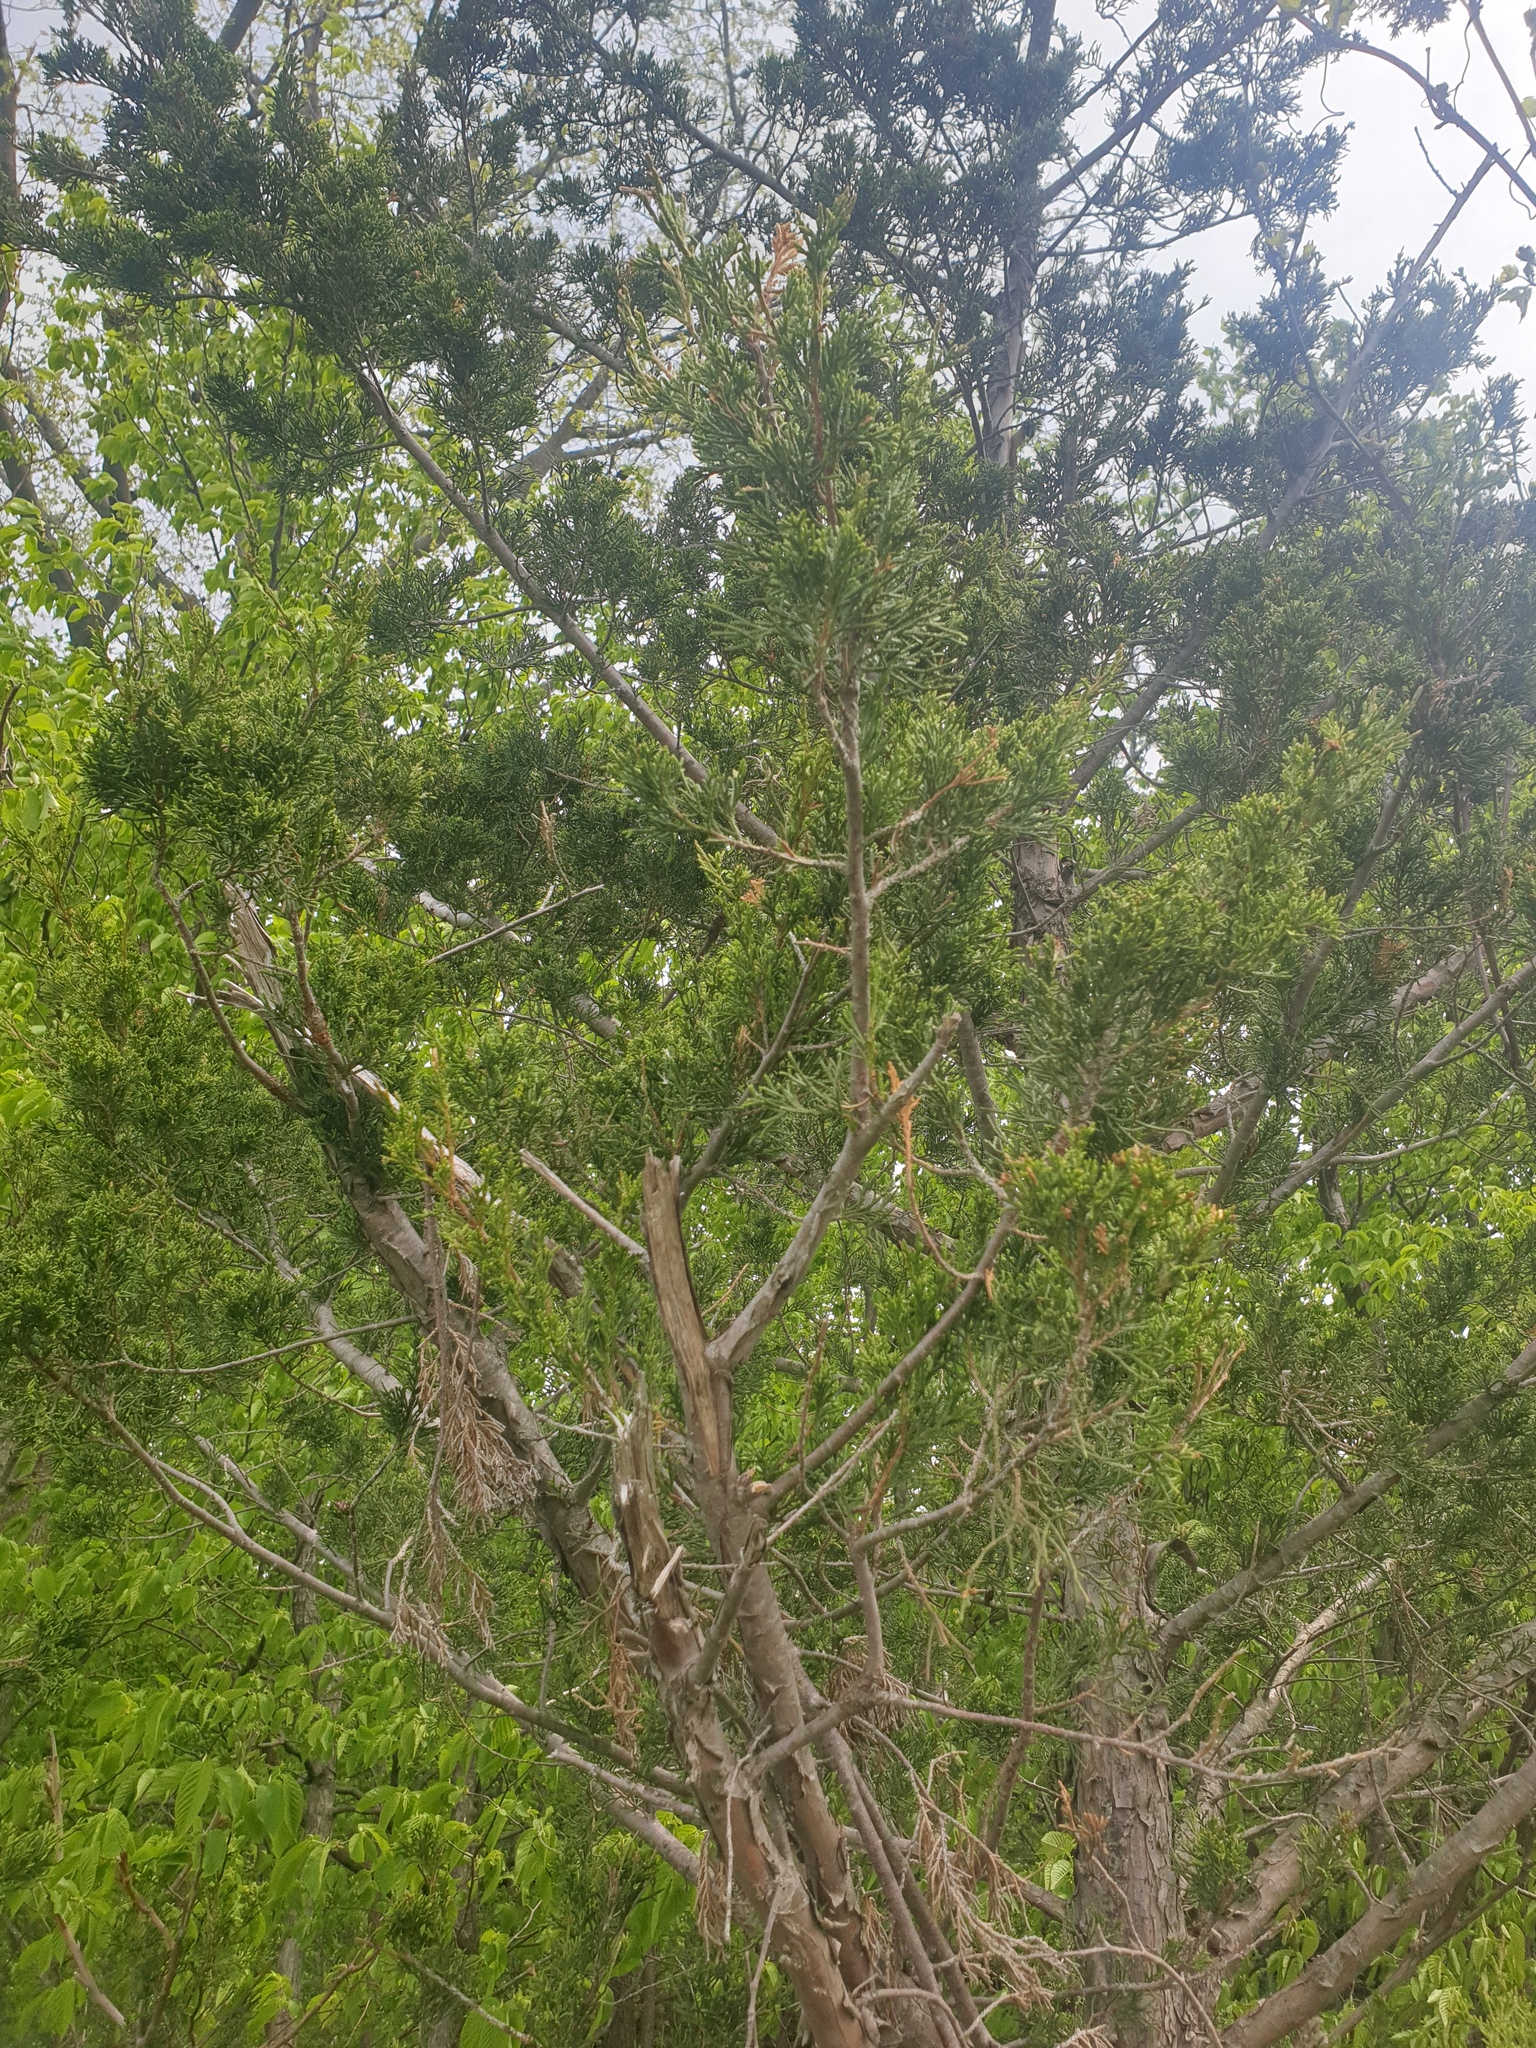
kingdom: Plantae
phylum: Tracheophyta
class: Pinopsida
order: Pinales
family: Cupressaceae
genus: Juniperus
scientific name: Juniperus virginiana
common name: Red juniper
